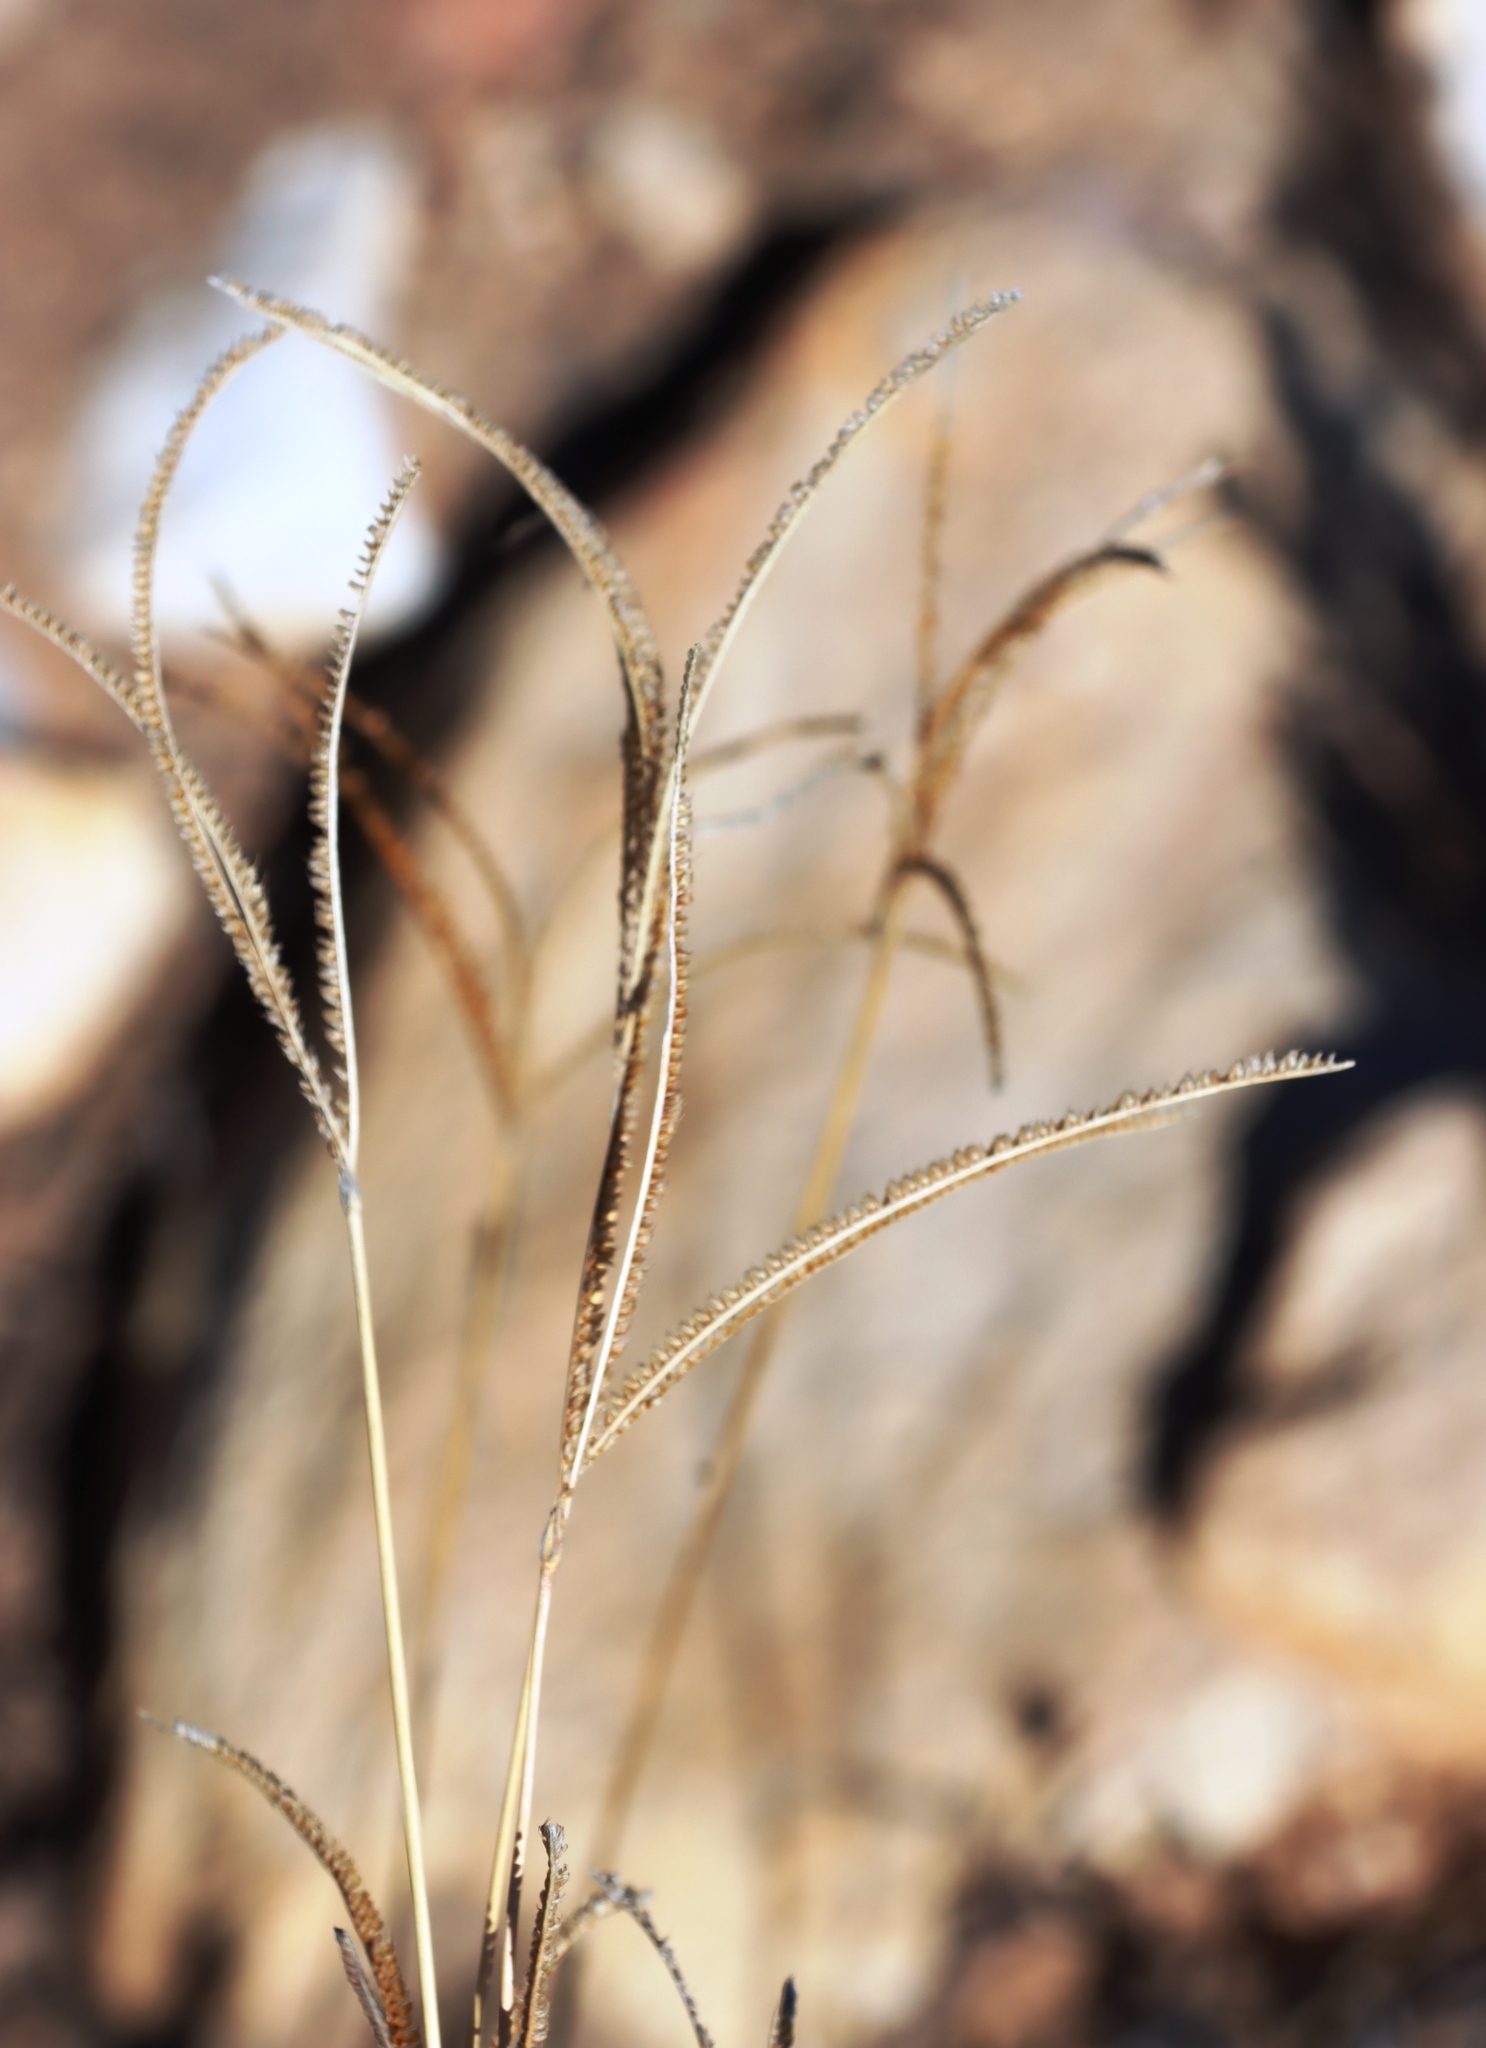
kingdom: Plantae
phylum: Tracheophyta
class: Liliopsida
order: Poales
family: Poaceae
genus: Eustachys
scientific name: Eustachys paspaloides
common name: Caribbean fingergrass
